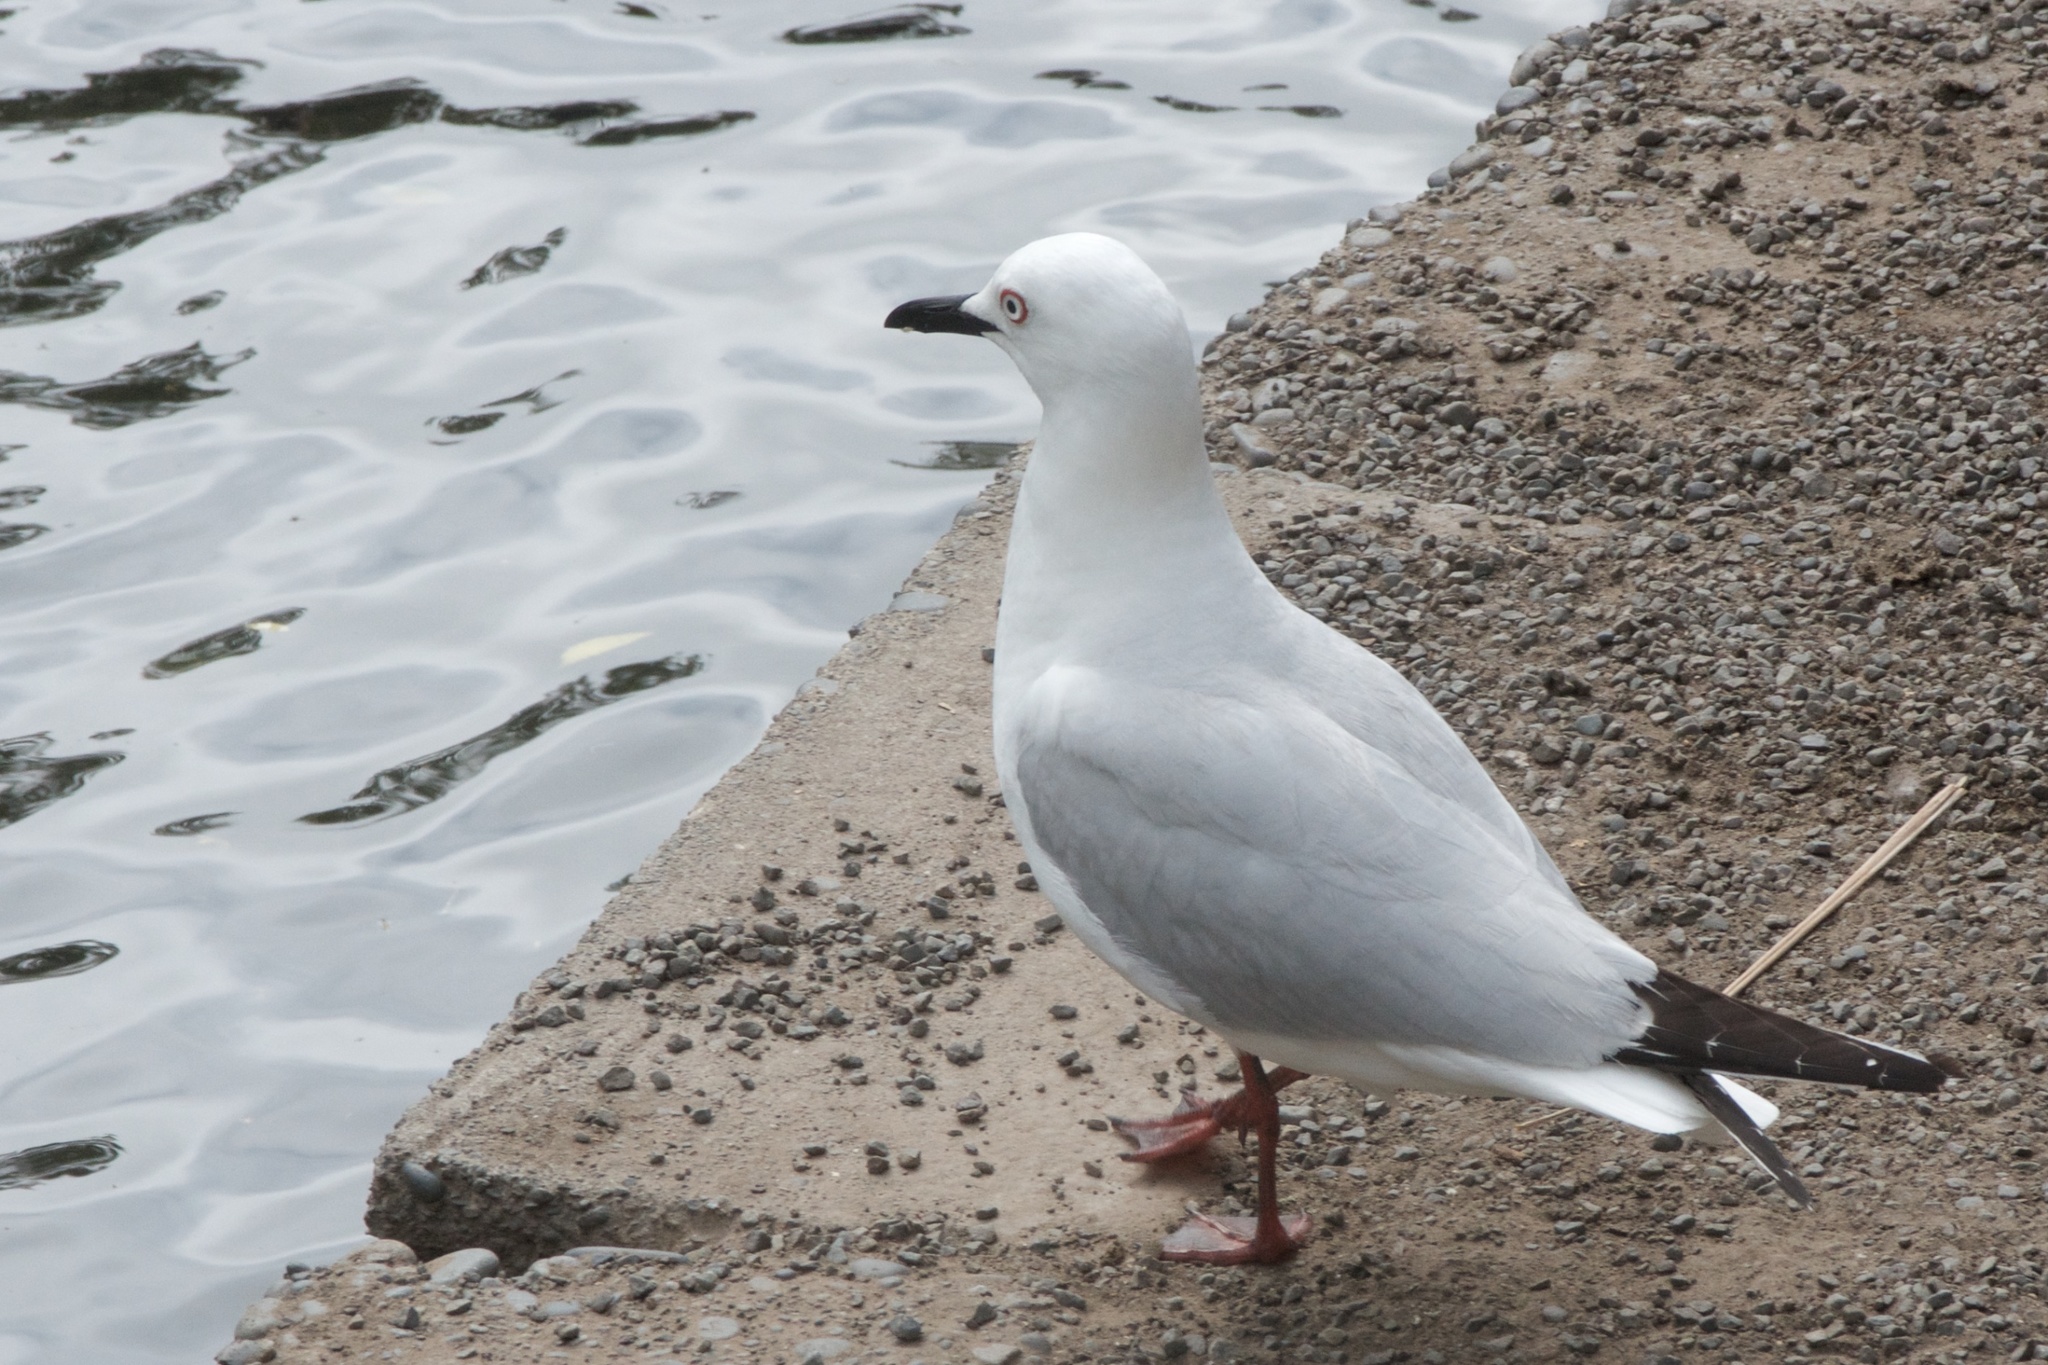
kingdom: Animalia
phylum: Chordata
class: Aves
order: Charadriiformes
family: Laridae
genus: Chroicocephalus
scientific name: Chroicocephalus bulleri
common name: Black-billed gull
